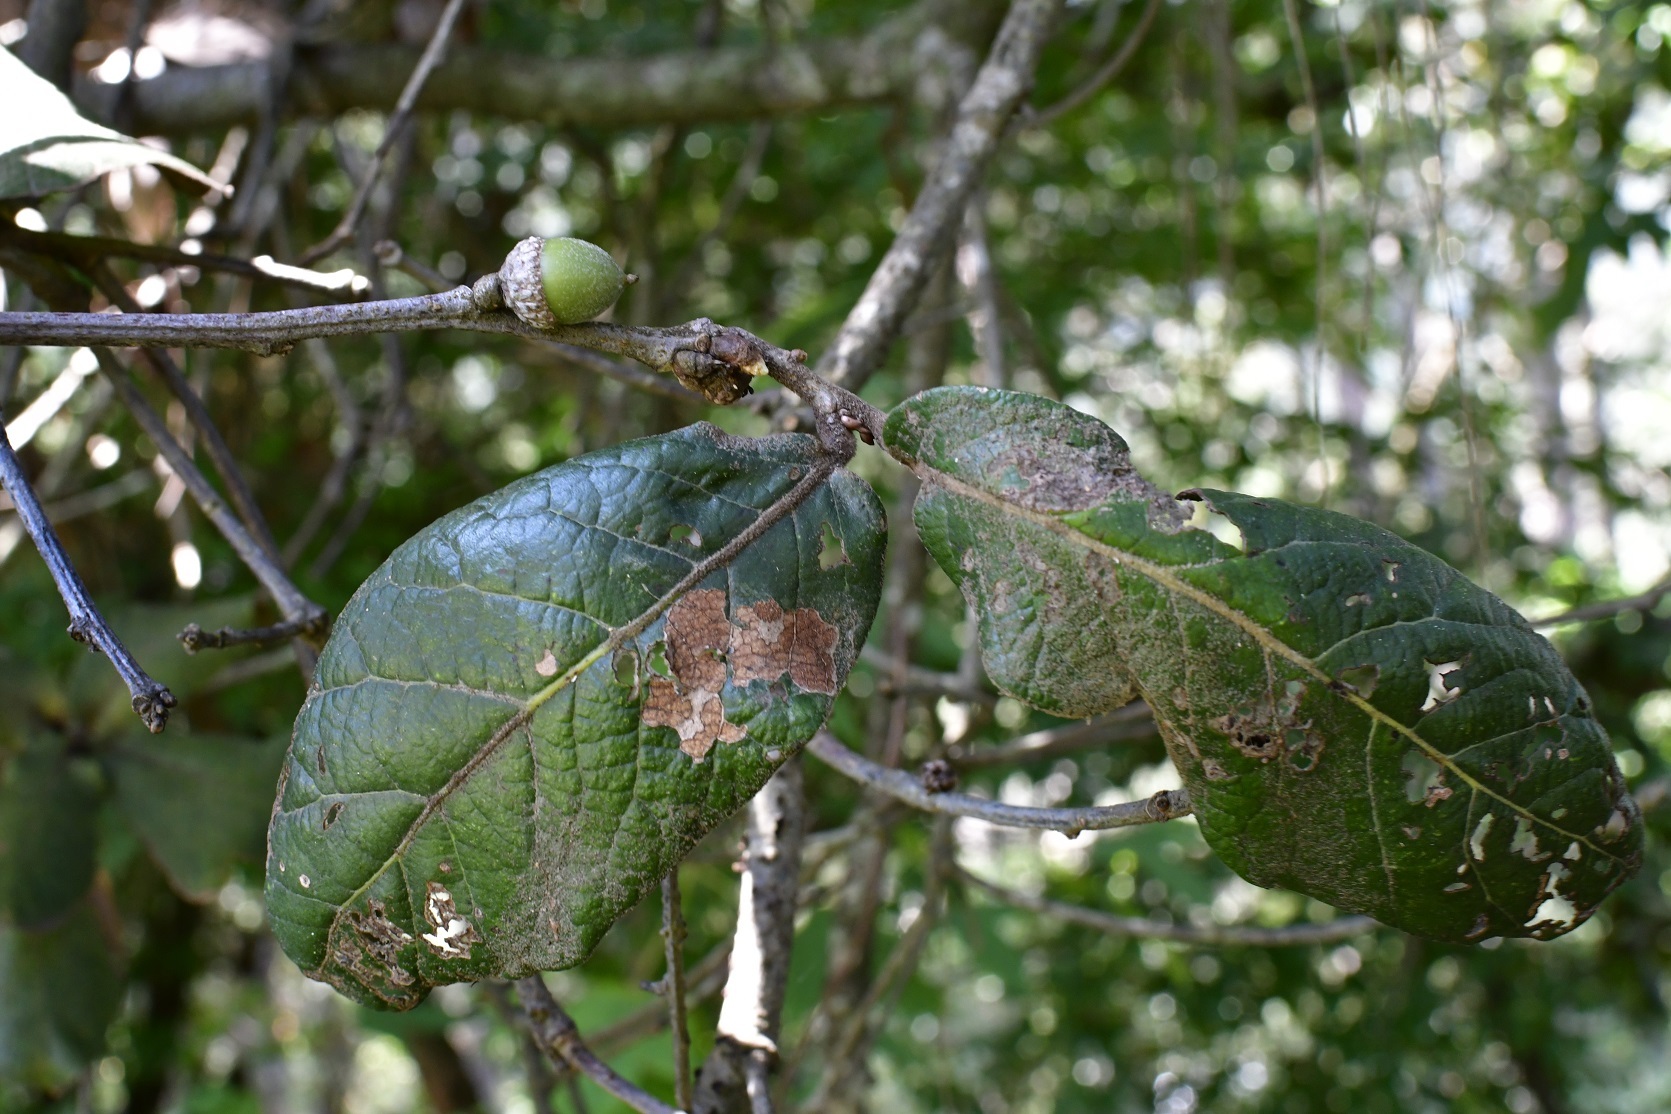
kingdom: Plantae
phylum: Tracheophyta
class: Magnoliopsida
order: Fagales
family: Fagaceae
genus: Quercus
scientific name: Quercus crassifolia
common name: Leather leaf mexican oak
